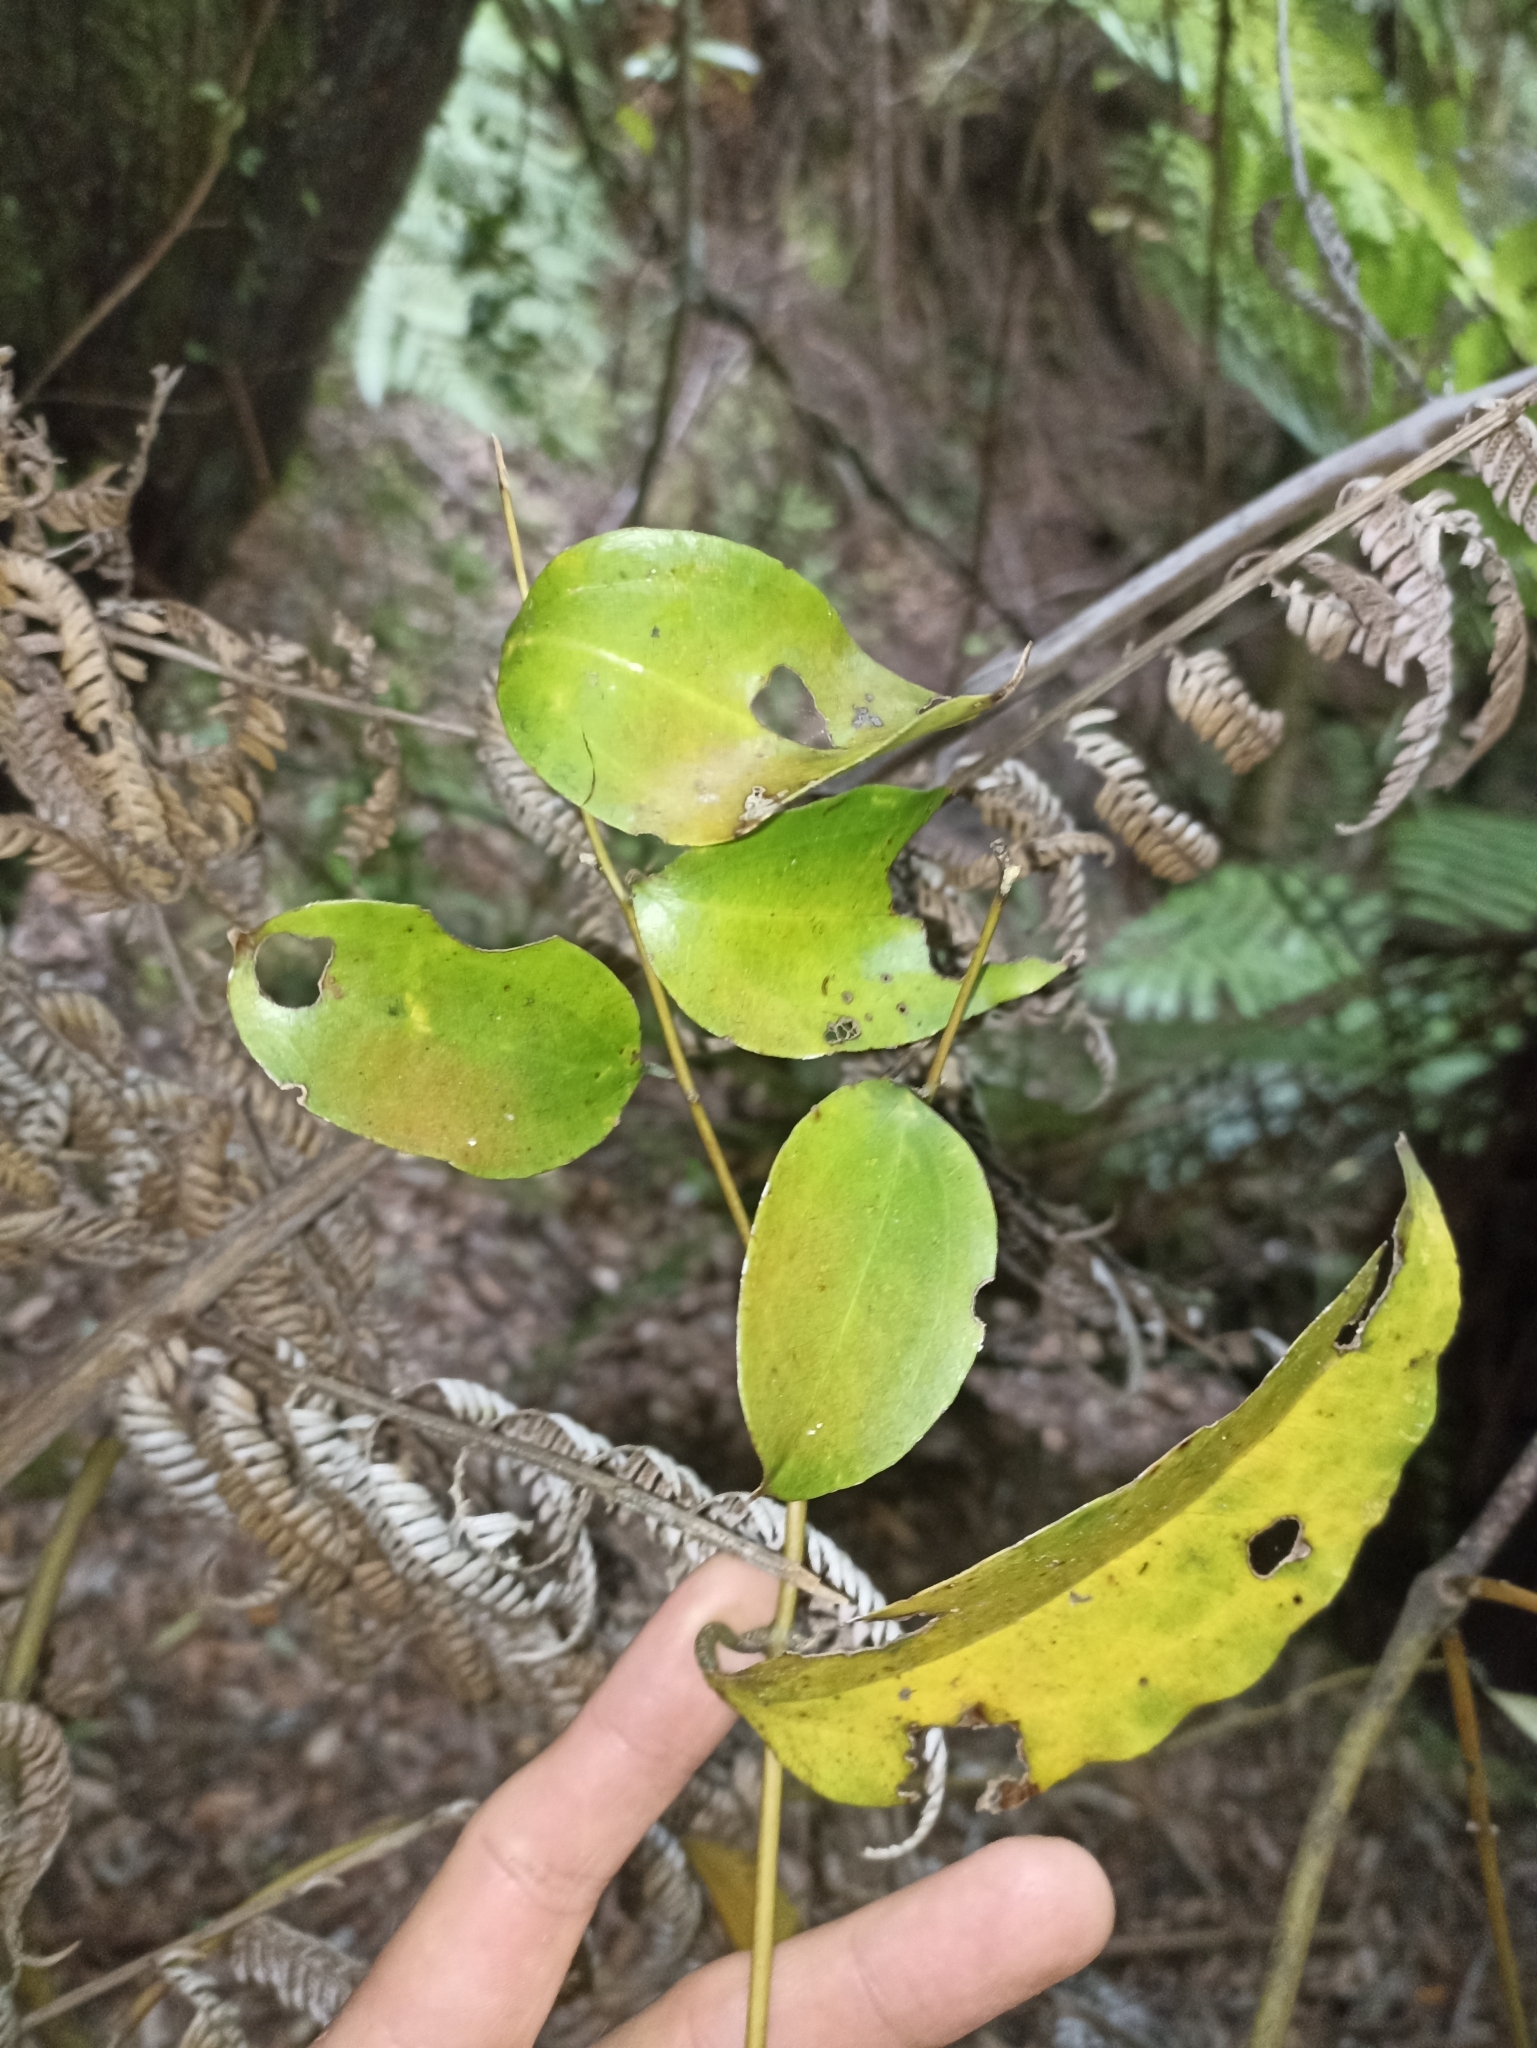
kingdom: Plantae
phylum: Tracheophyta
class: Liliopsida
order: Liliales
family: Ripogonaceae
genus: Ripogonum
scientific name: Ripogonum scandens
